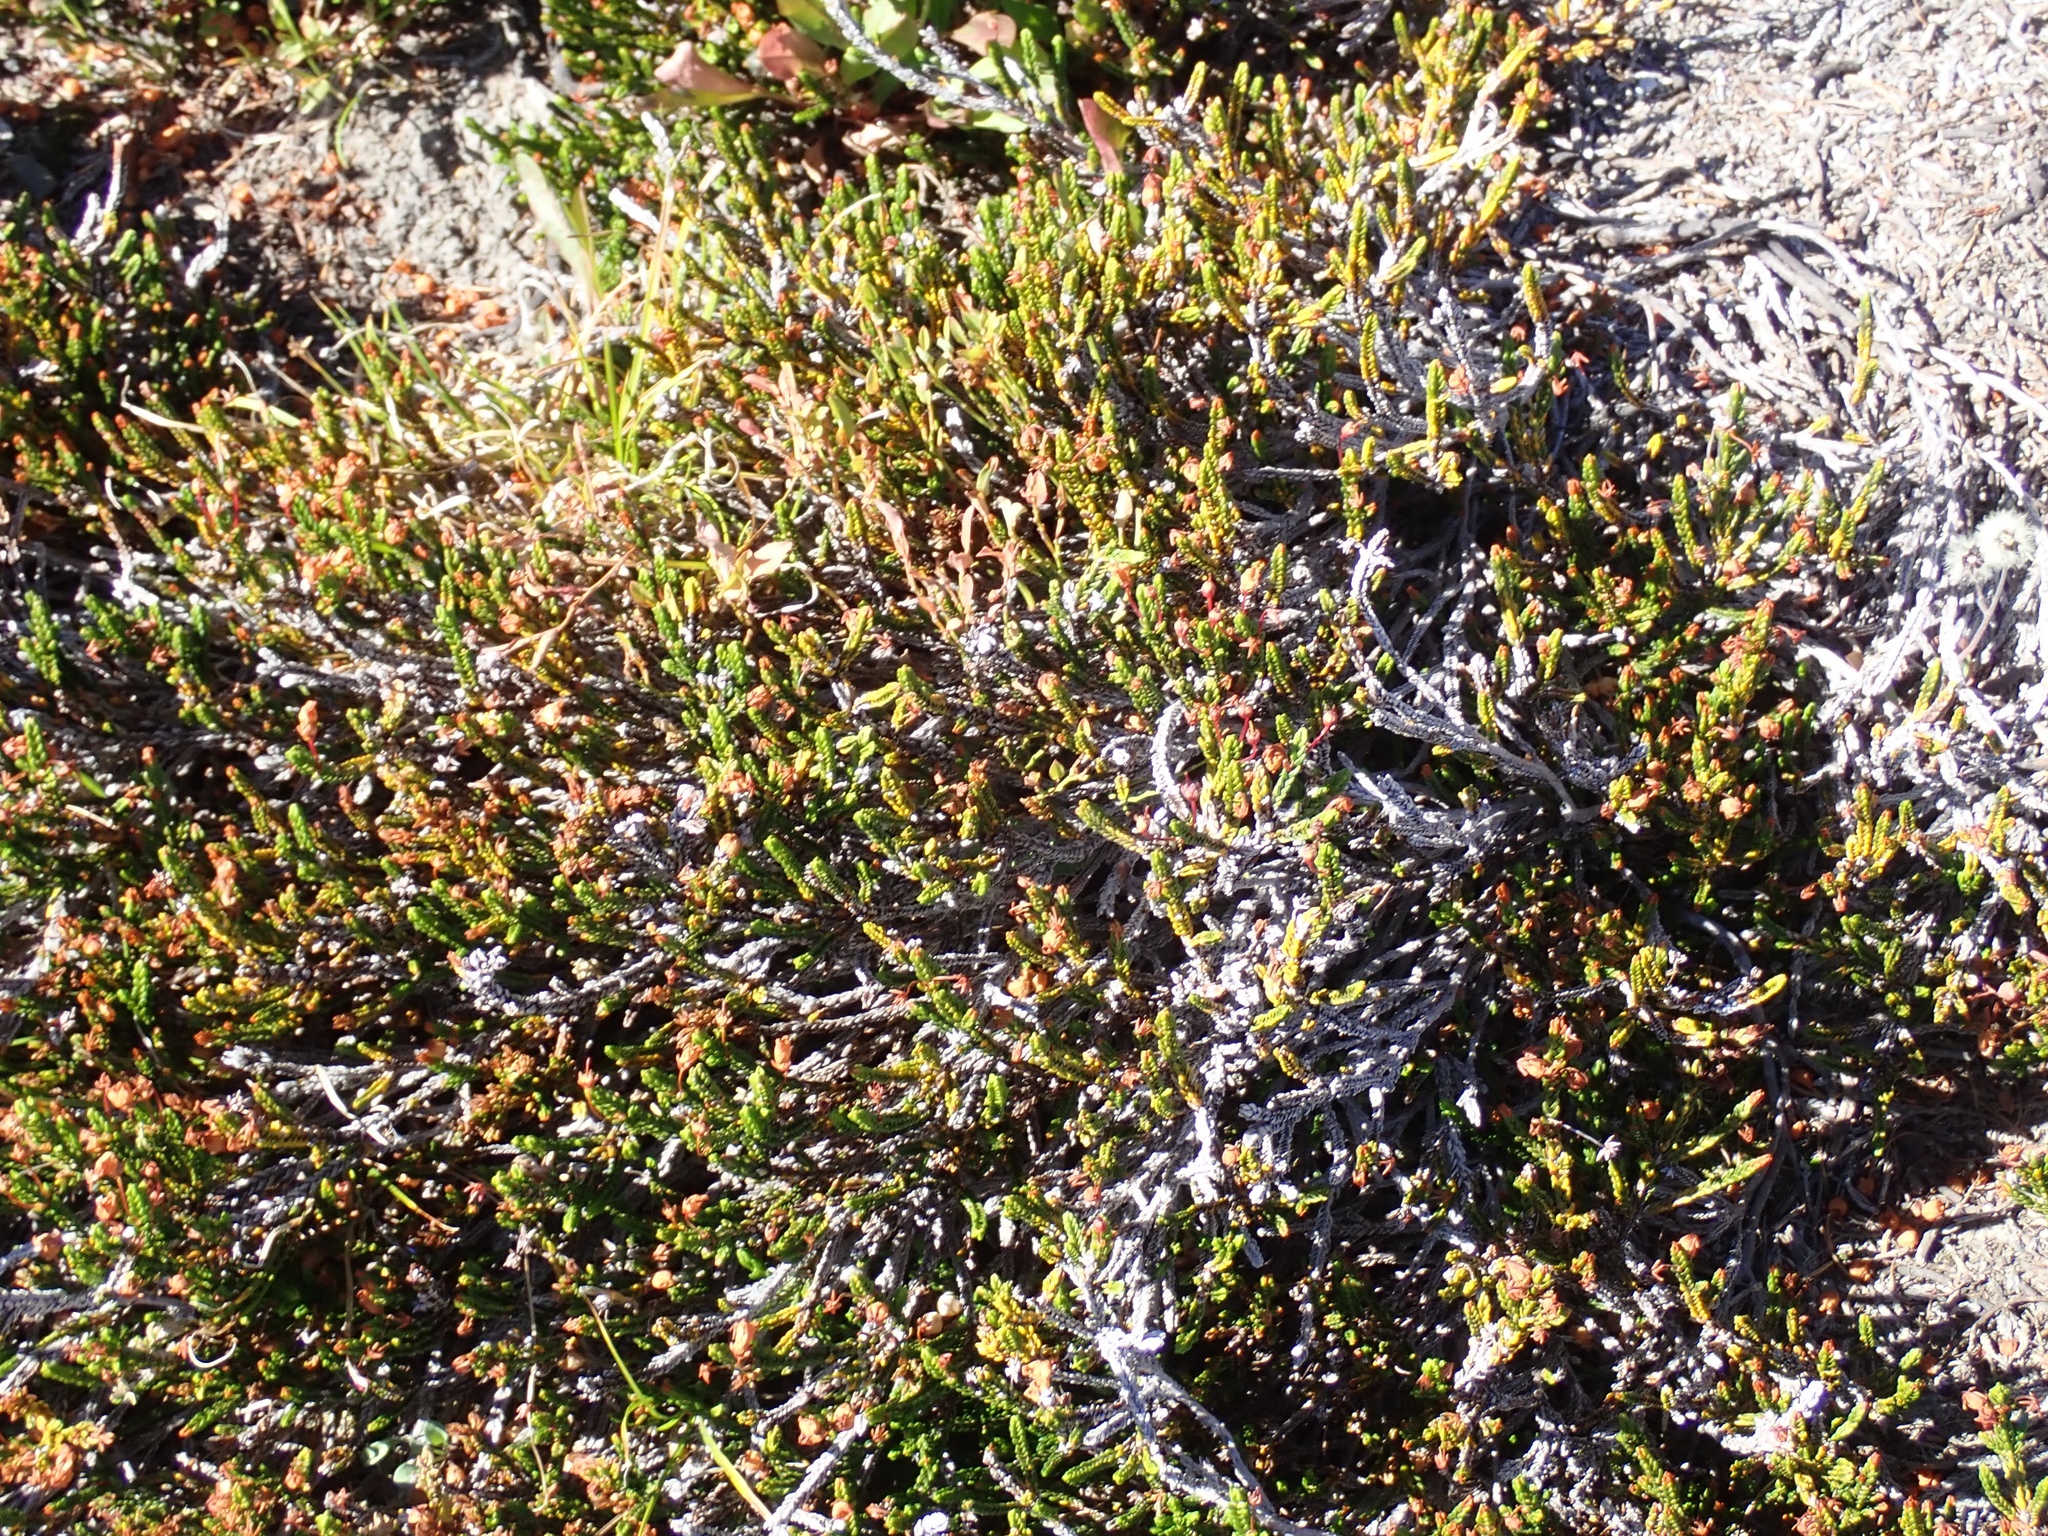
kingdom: Plantae
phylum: Tracheophyta
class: Magnoliopsida
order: Ericales
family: Ericaceae
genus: Cassiope
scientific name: Cassiope mertensiana
